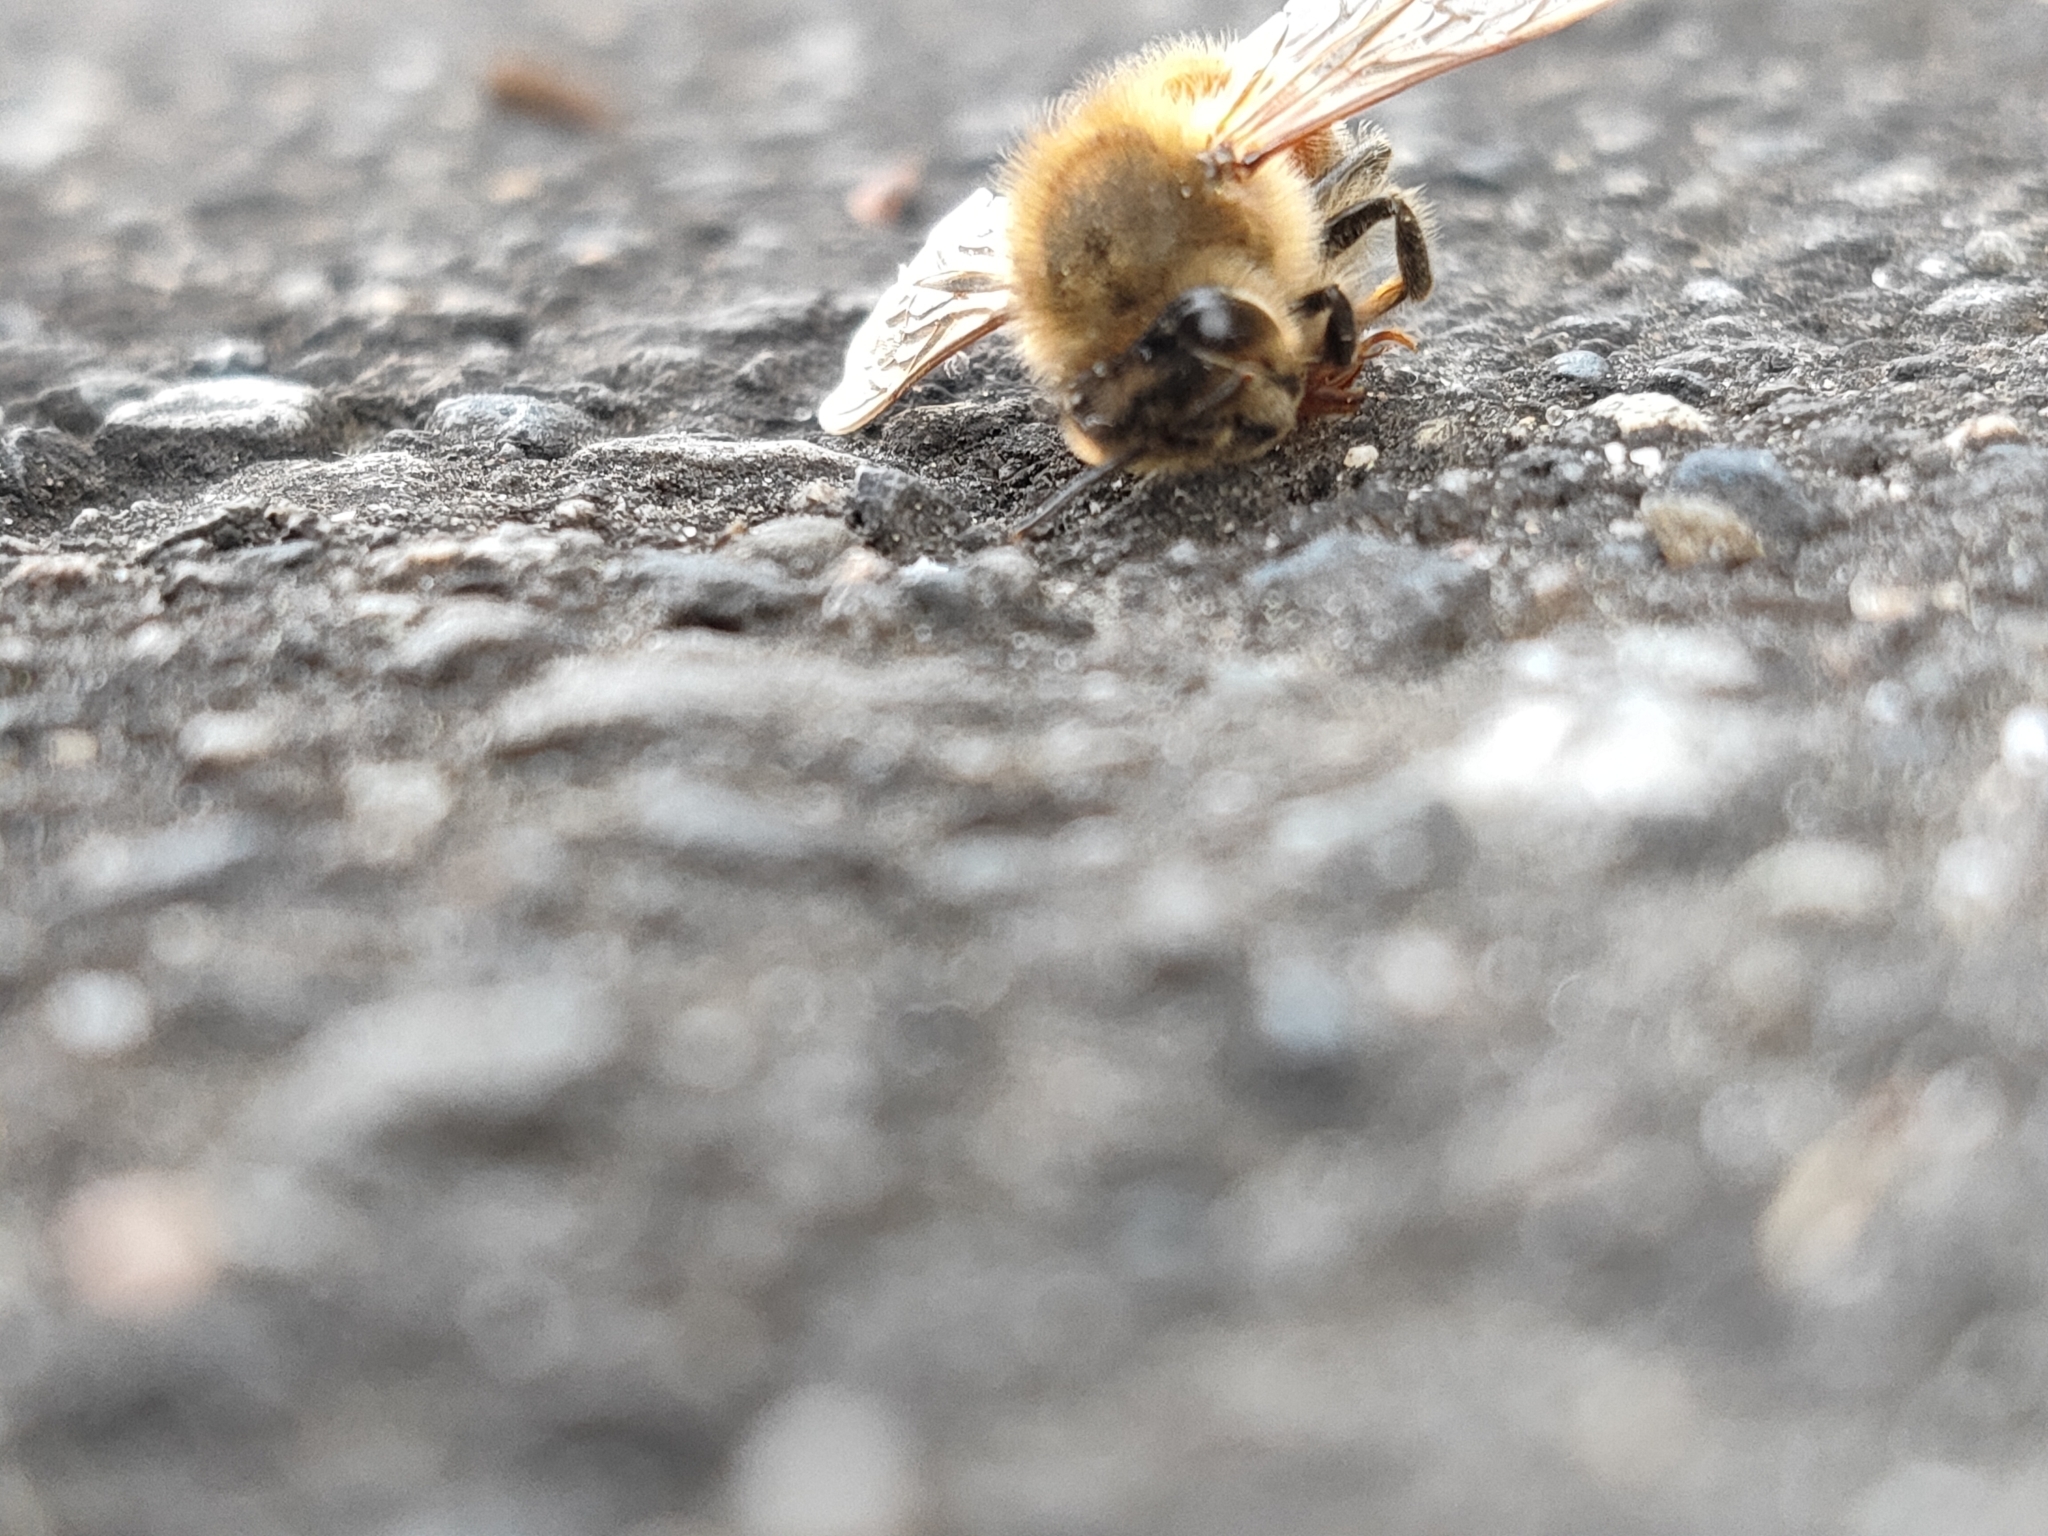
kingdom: Animalia
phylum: Arthropoda
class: Insecta
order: Hymenoptera
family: Apidae
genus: Apis
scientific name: Apis mellifera
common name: Honey bee
